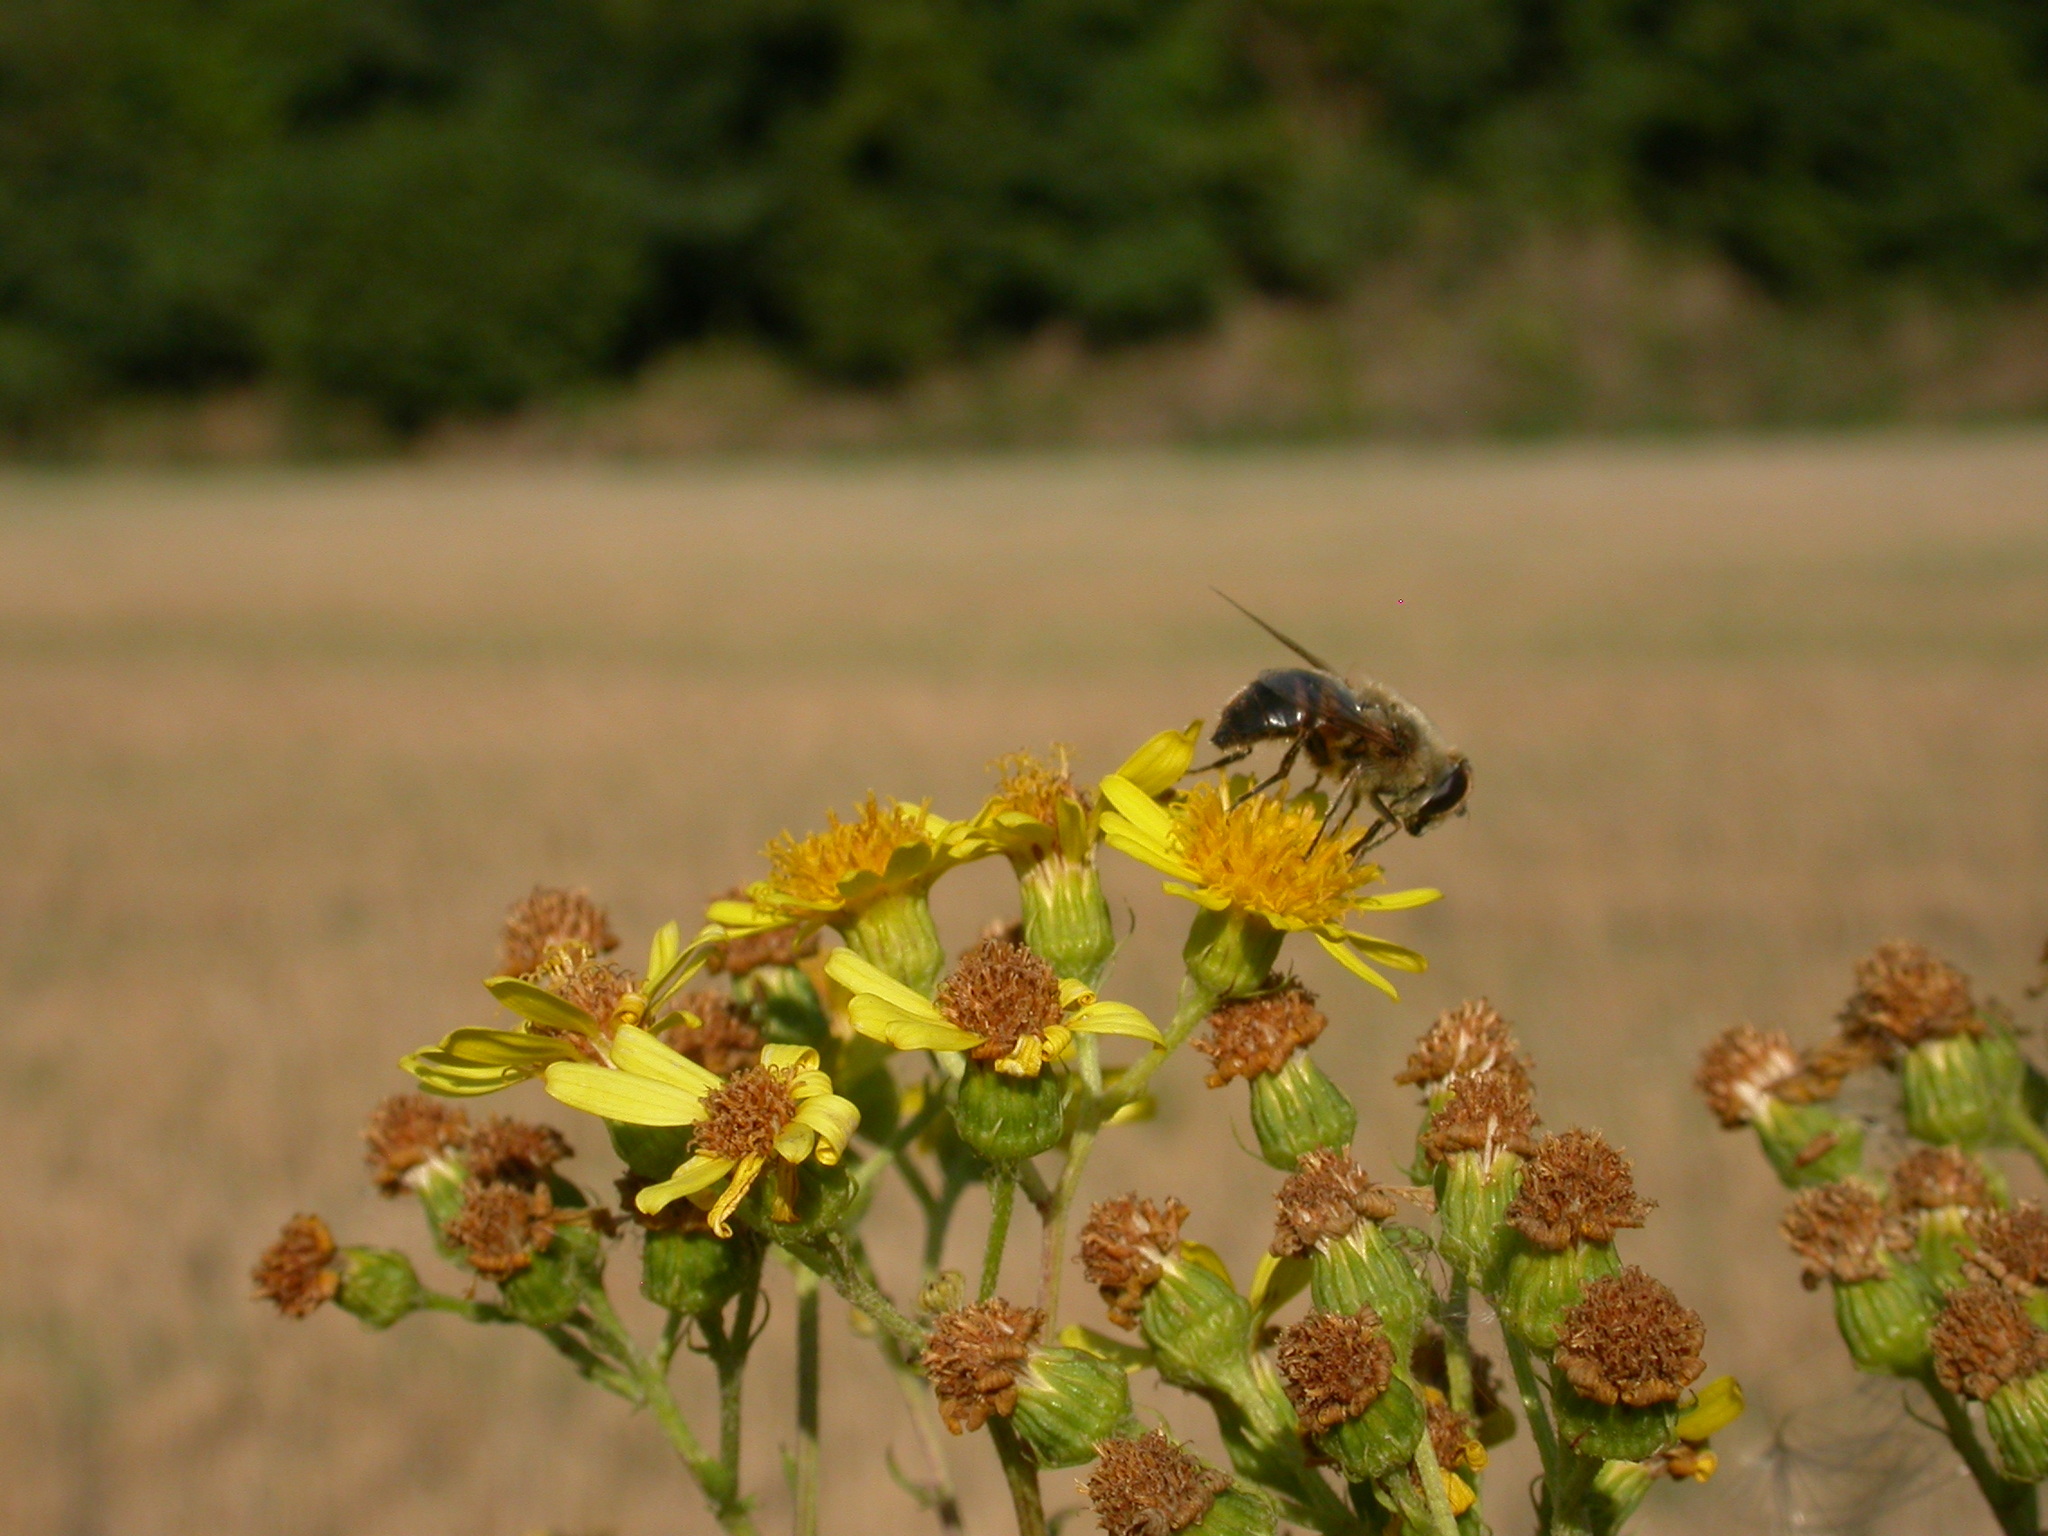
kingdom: Animalia
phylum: Arthropoda
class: Insecta
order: Diptera
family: Syrphidae
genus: Eristalis
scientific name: Eristalis tenax
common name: Drone fly
